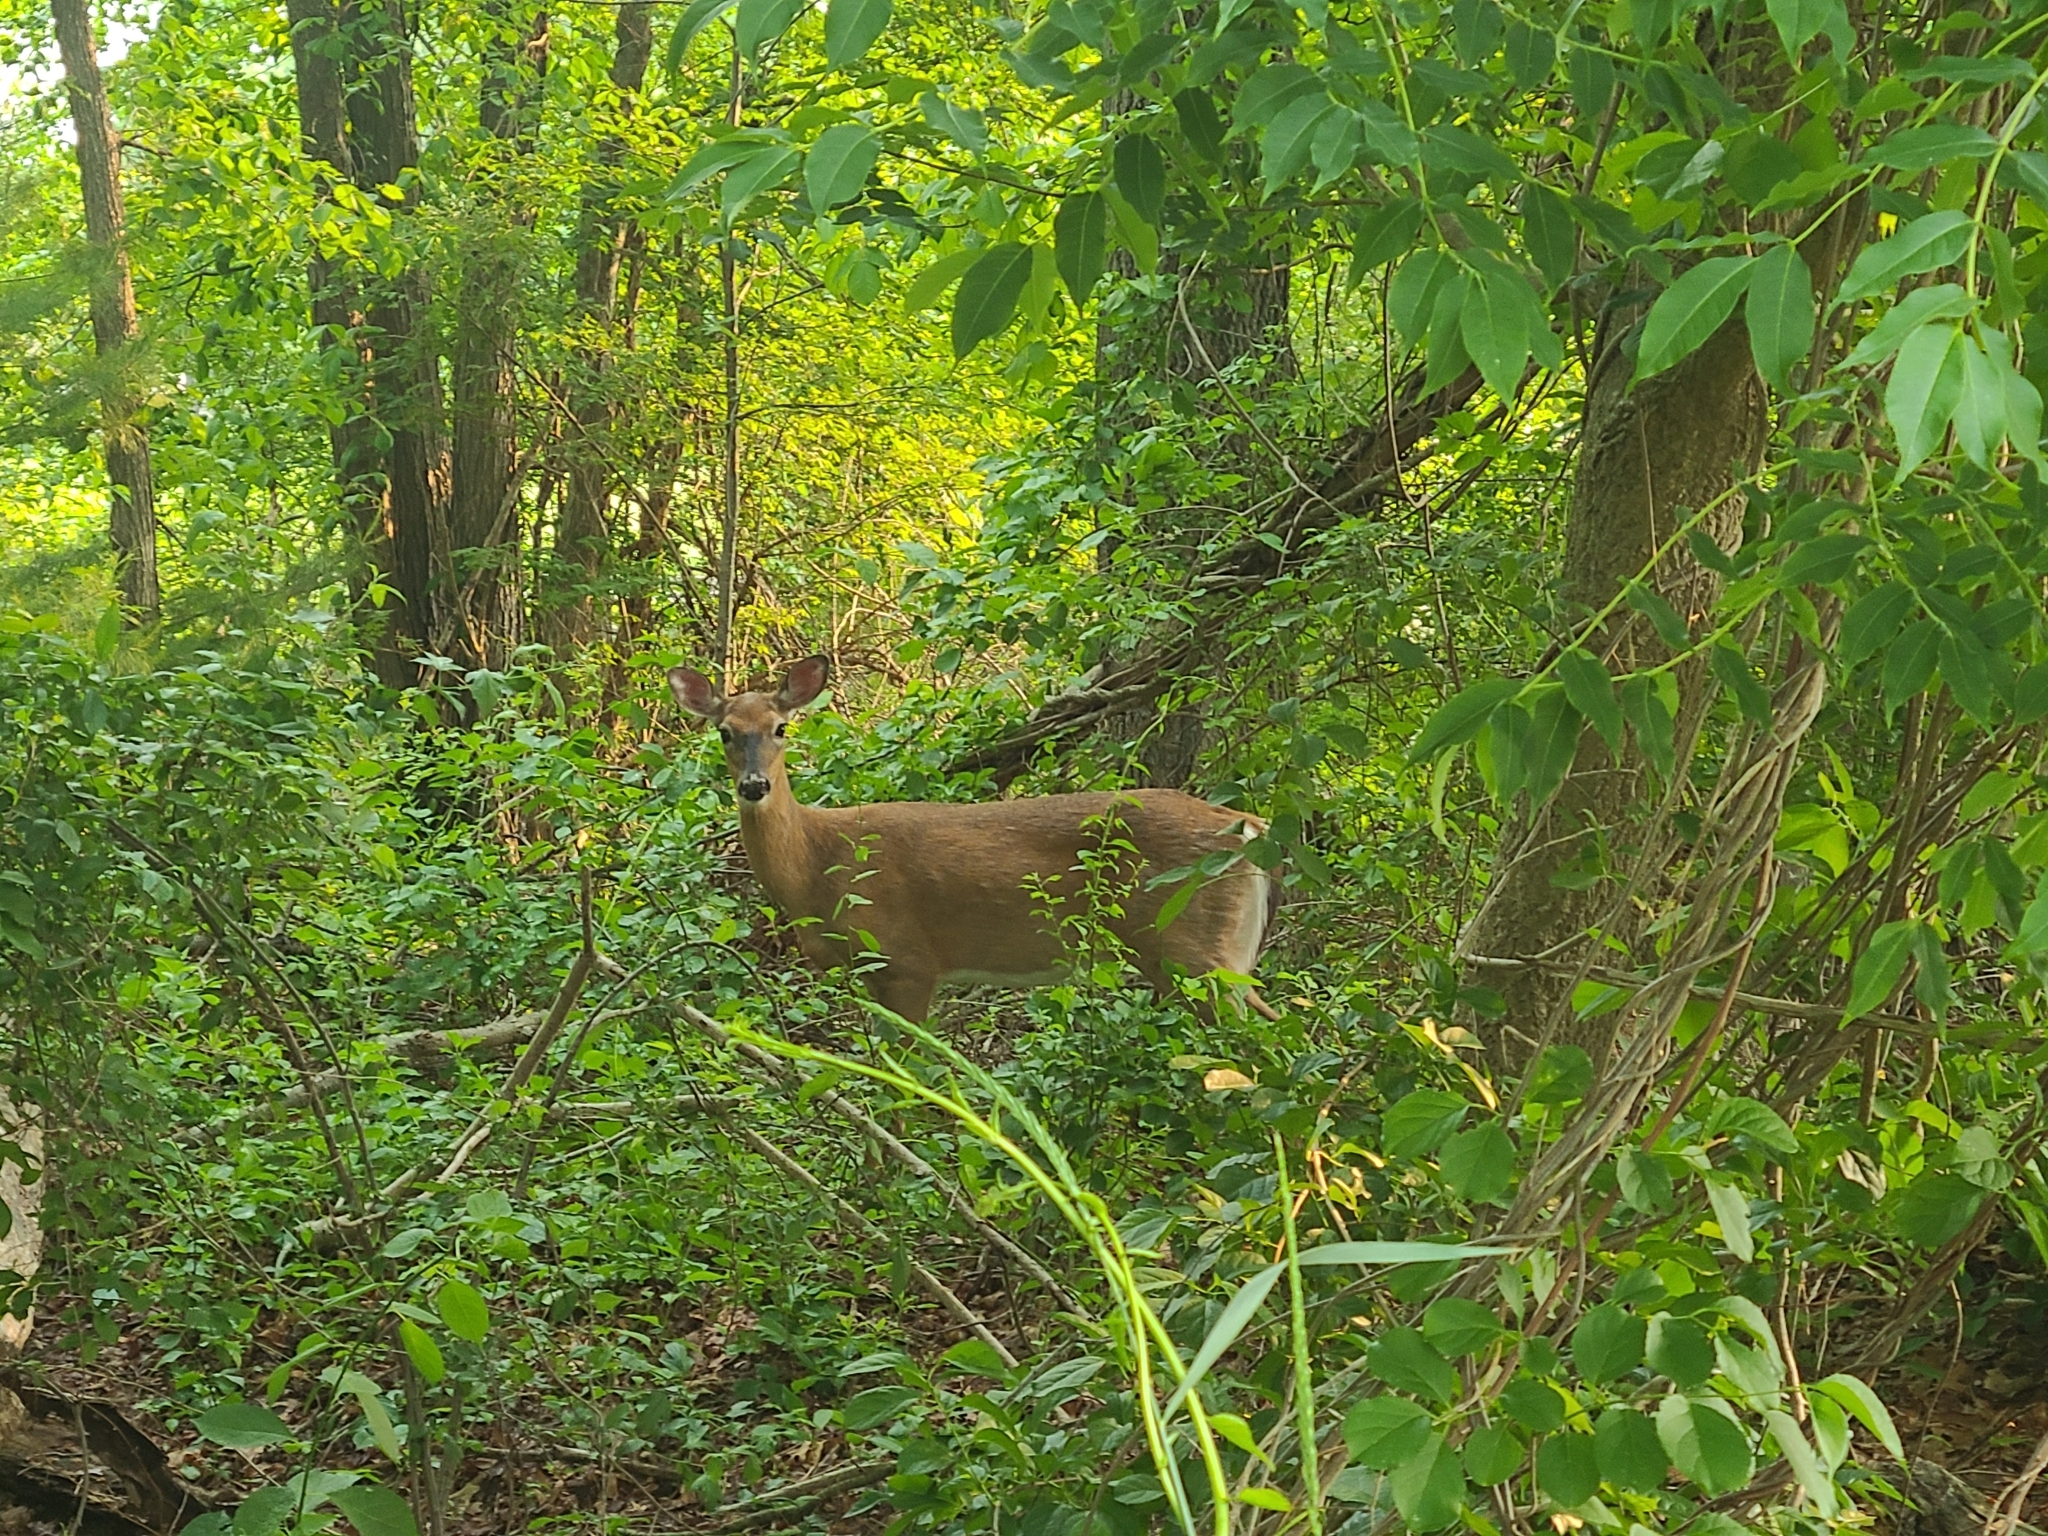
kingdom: Animalia
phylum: Chordata
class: Mammalia
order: Artiodactyla
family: Cervidae
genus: Odocoileus
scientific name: Odocoileus virginianus
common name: White-tailed deer
